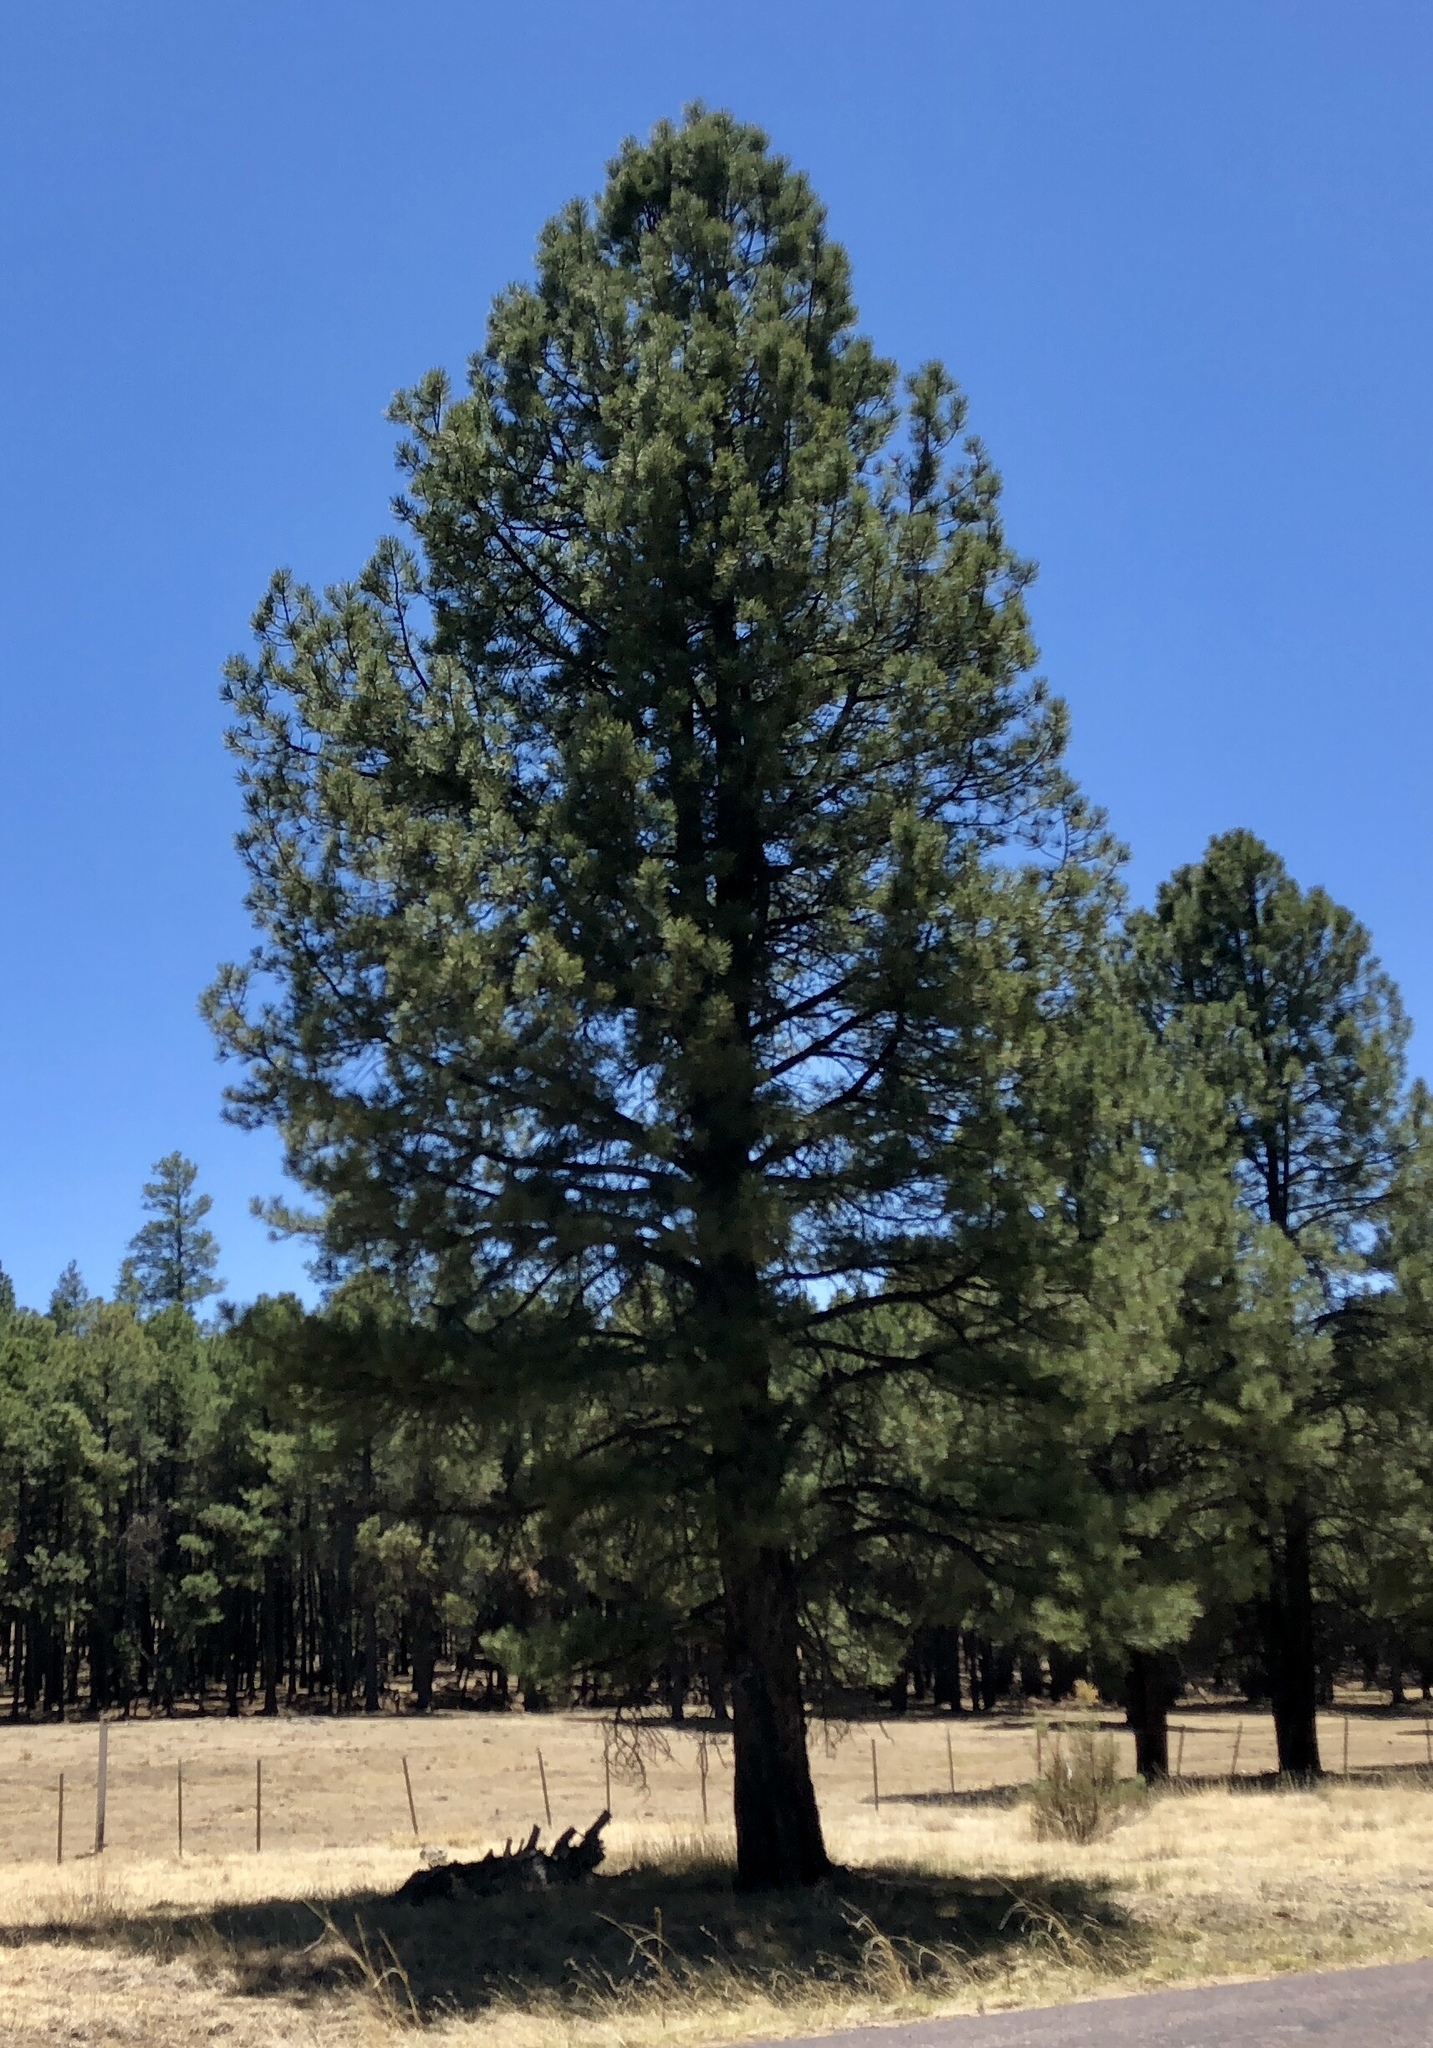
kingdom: Plantae
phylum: Tracheophyta
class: Pinopsida
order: Pinales
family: Pinaceae
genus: Pinus
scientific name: Pinus ponderosa
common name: Western yellow-pine
